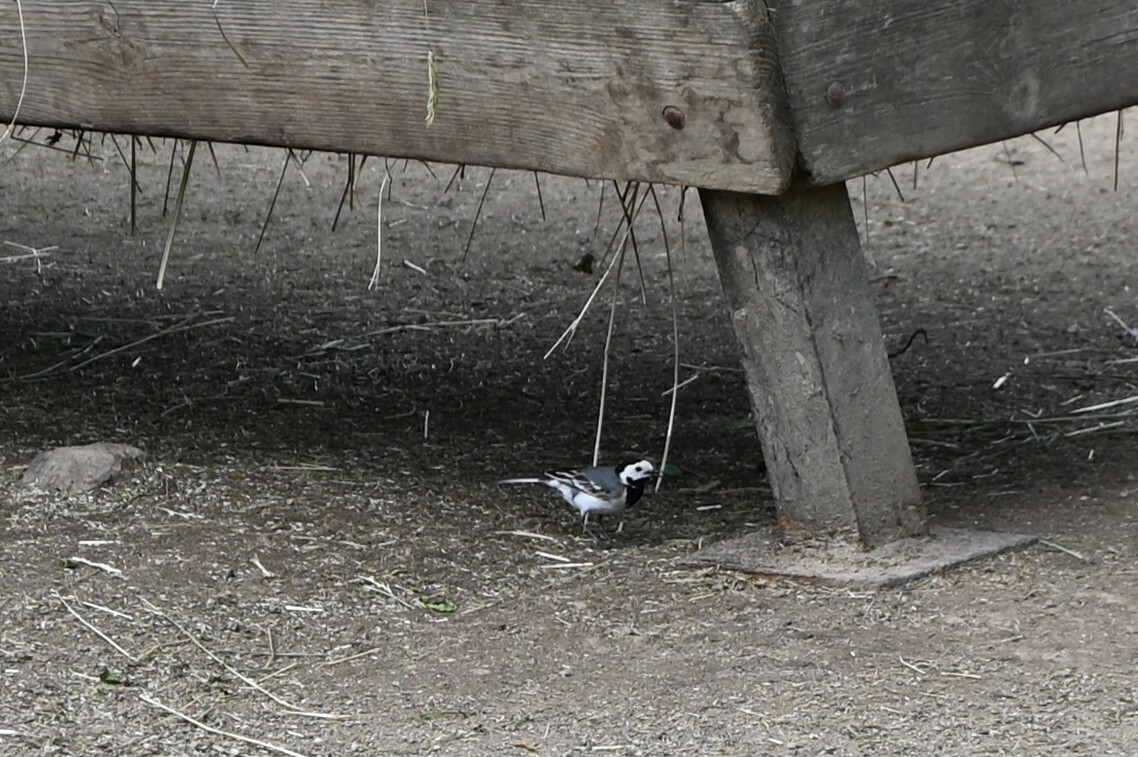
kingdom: Animalia
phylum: Chordata
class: Aves
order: Passeriformes
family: Motacillidae
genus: Motacilla
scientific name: Motacilla alba
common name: White wagtail
